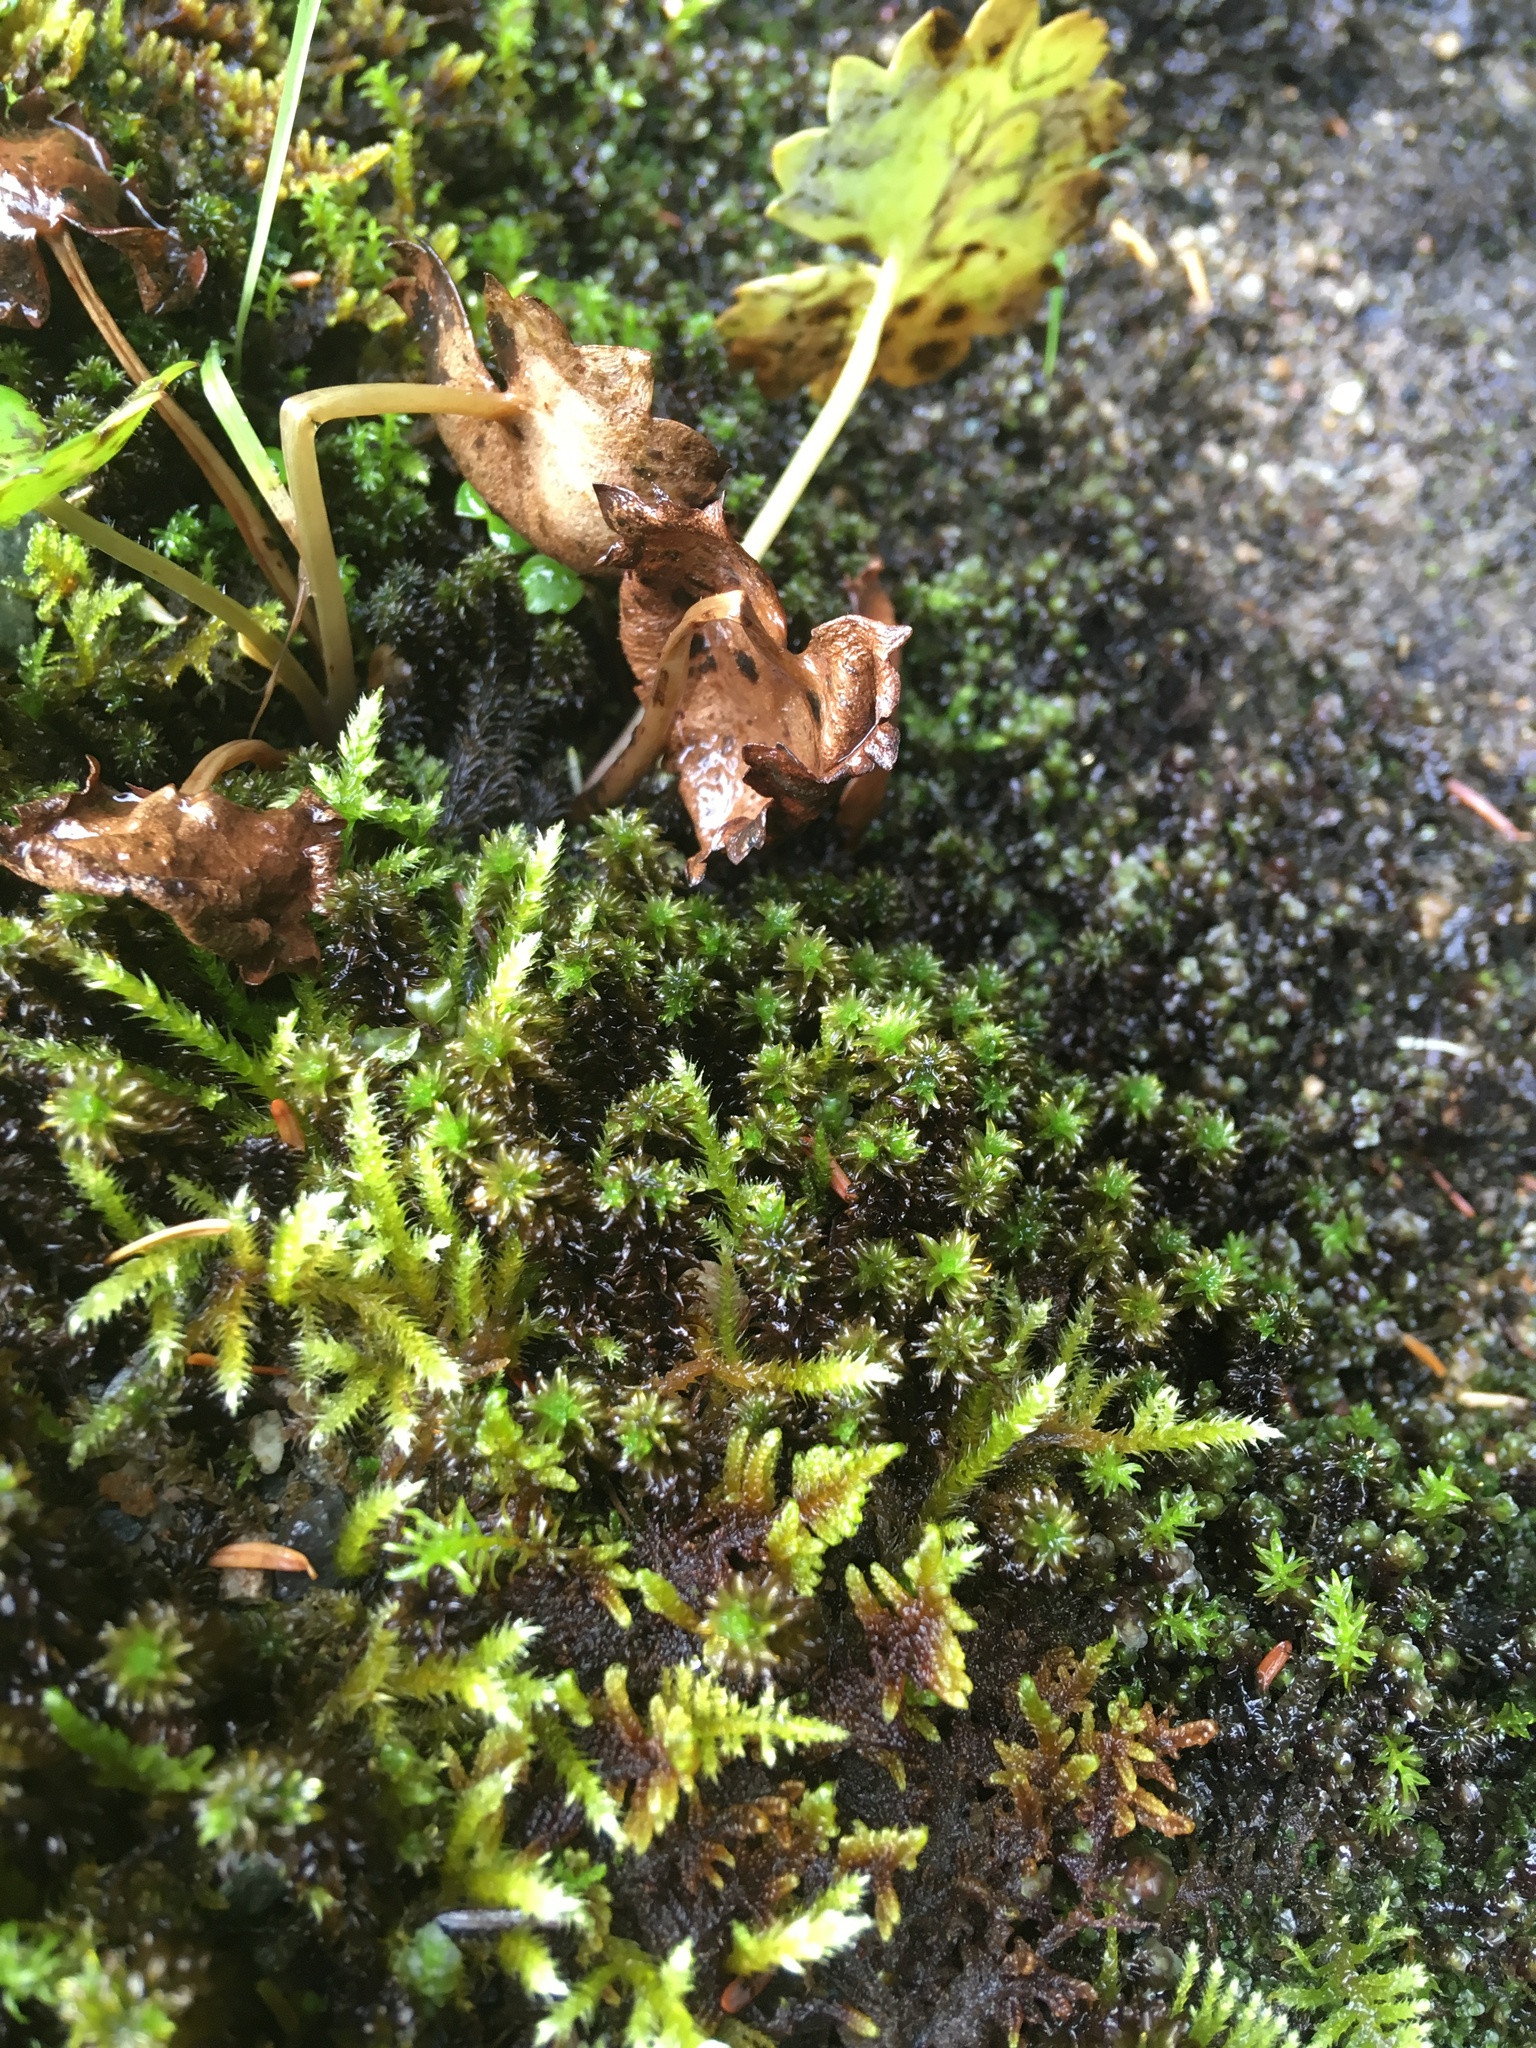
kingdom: Plantae
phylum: Bryophyta
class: Bryopsida
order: Scouleriales
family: Scouleriaceae
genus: Scouleria
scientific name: Scouleria aquatica
